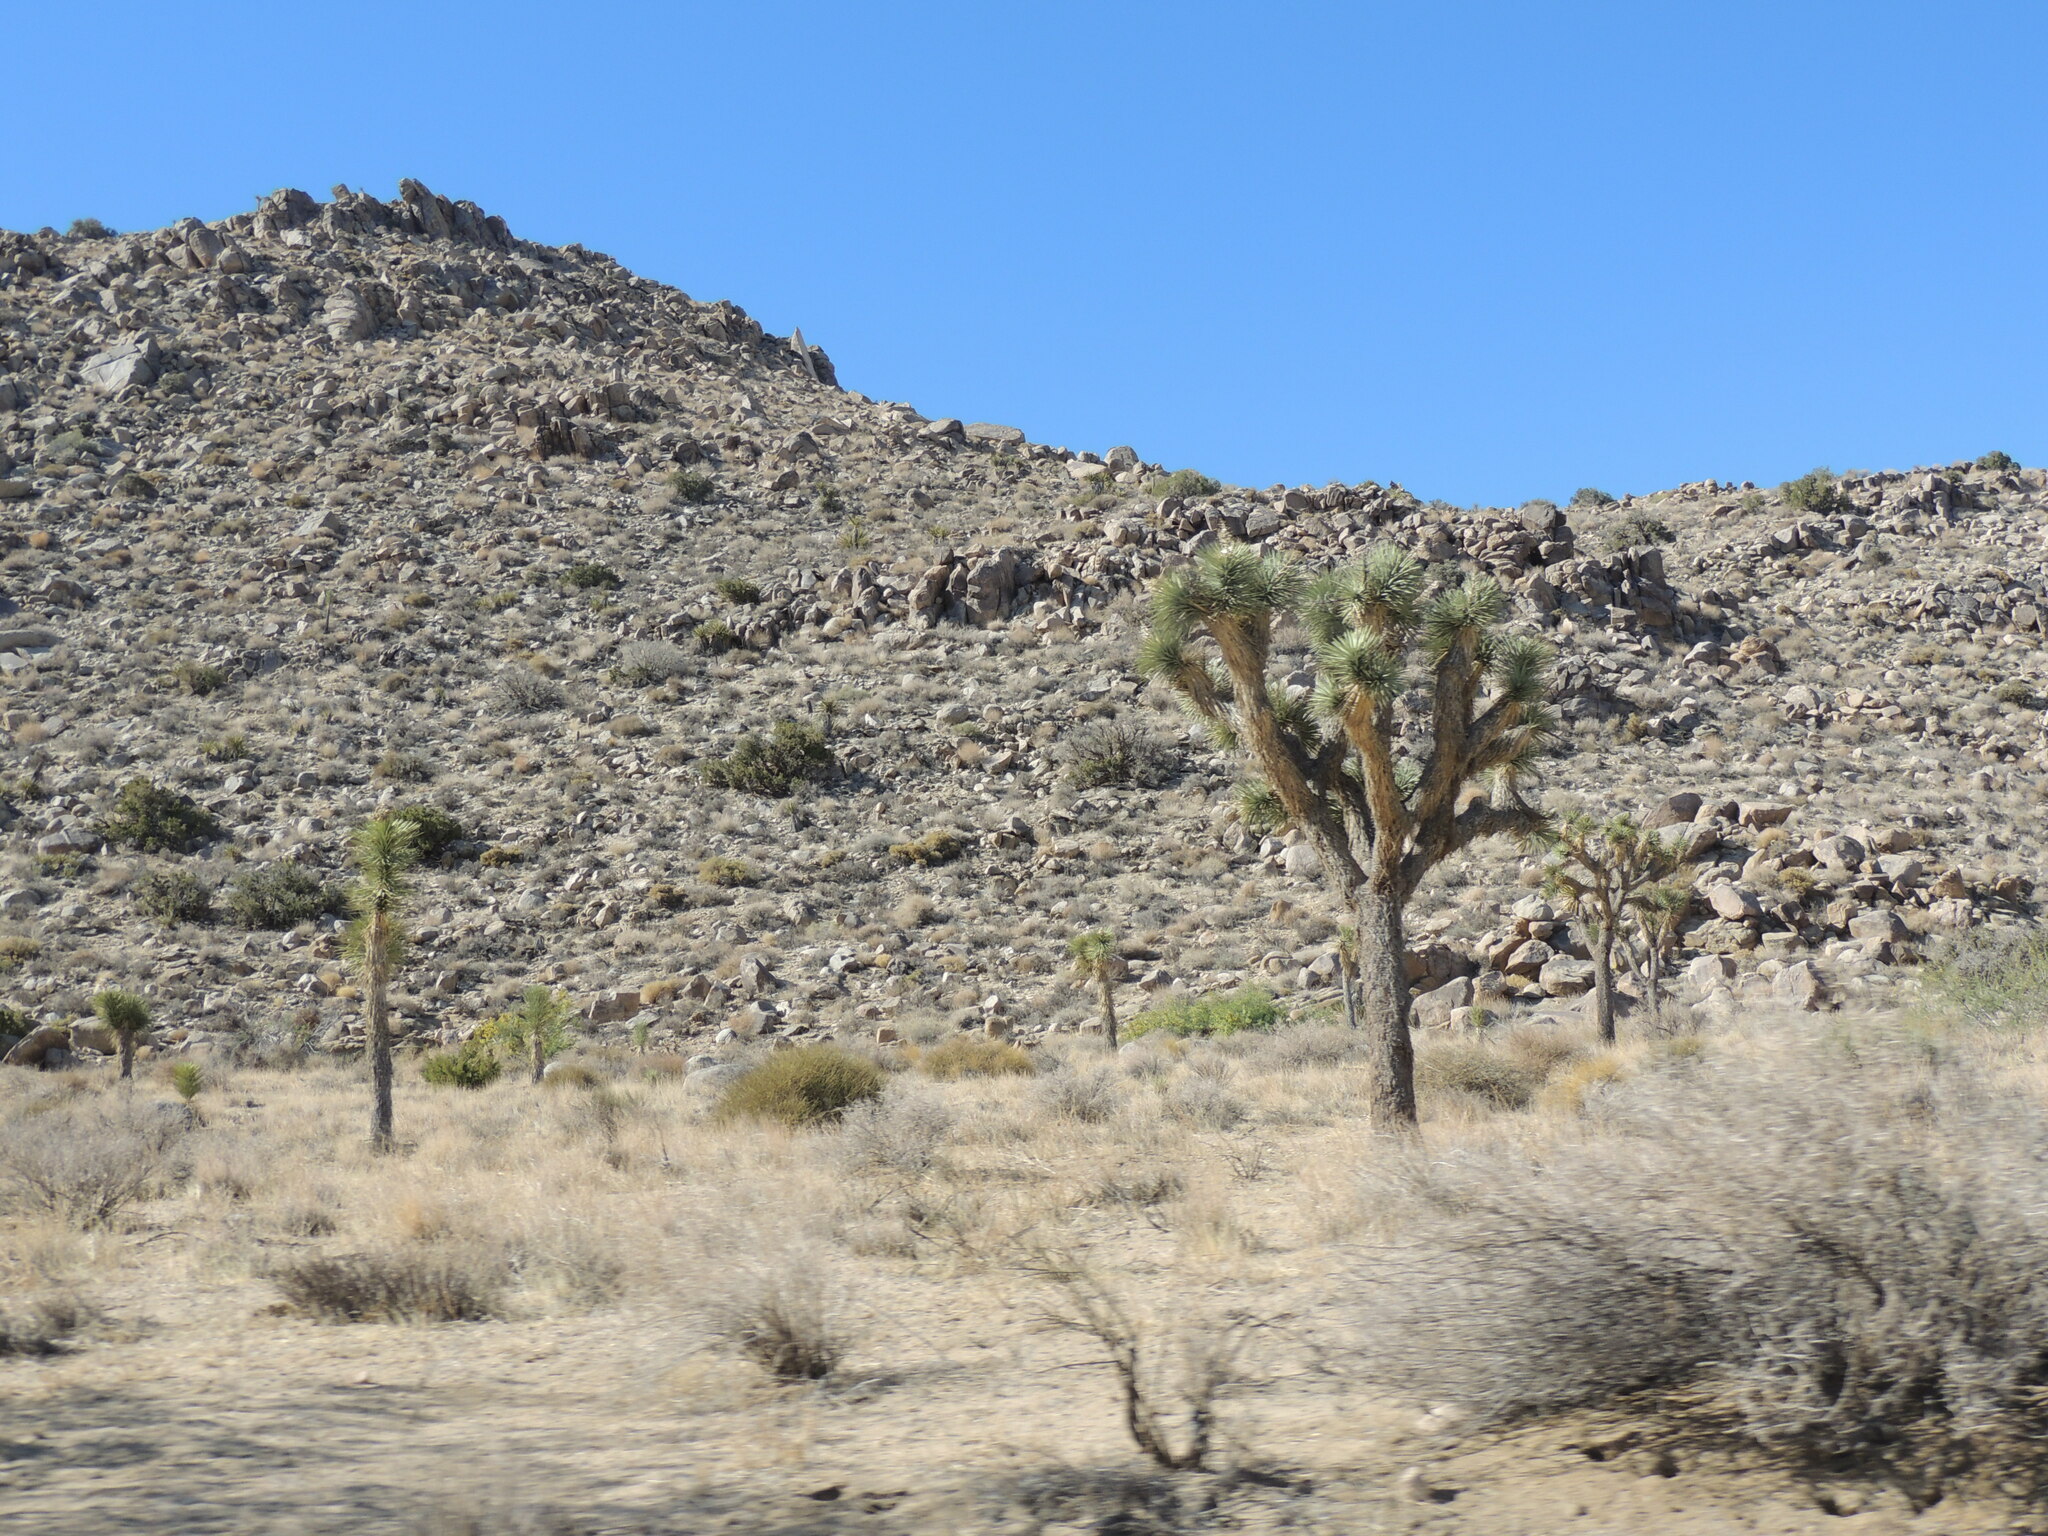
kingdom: Plantae
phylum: Tracheophyta
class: Liliopsida
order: Asparagales
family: Asparagaceae
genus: Yucca
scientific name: Yucca brevifolia
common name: Joshua tree
